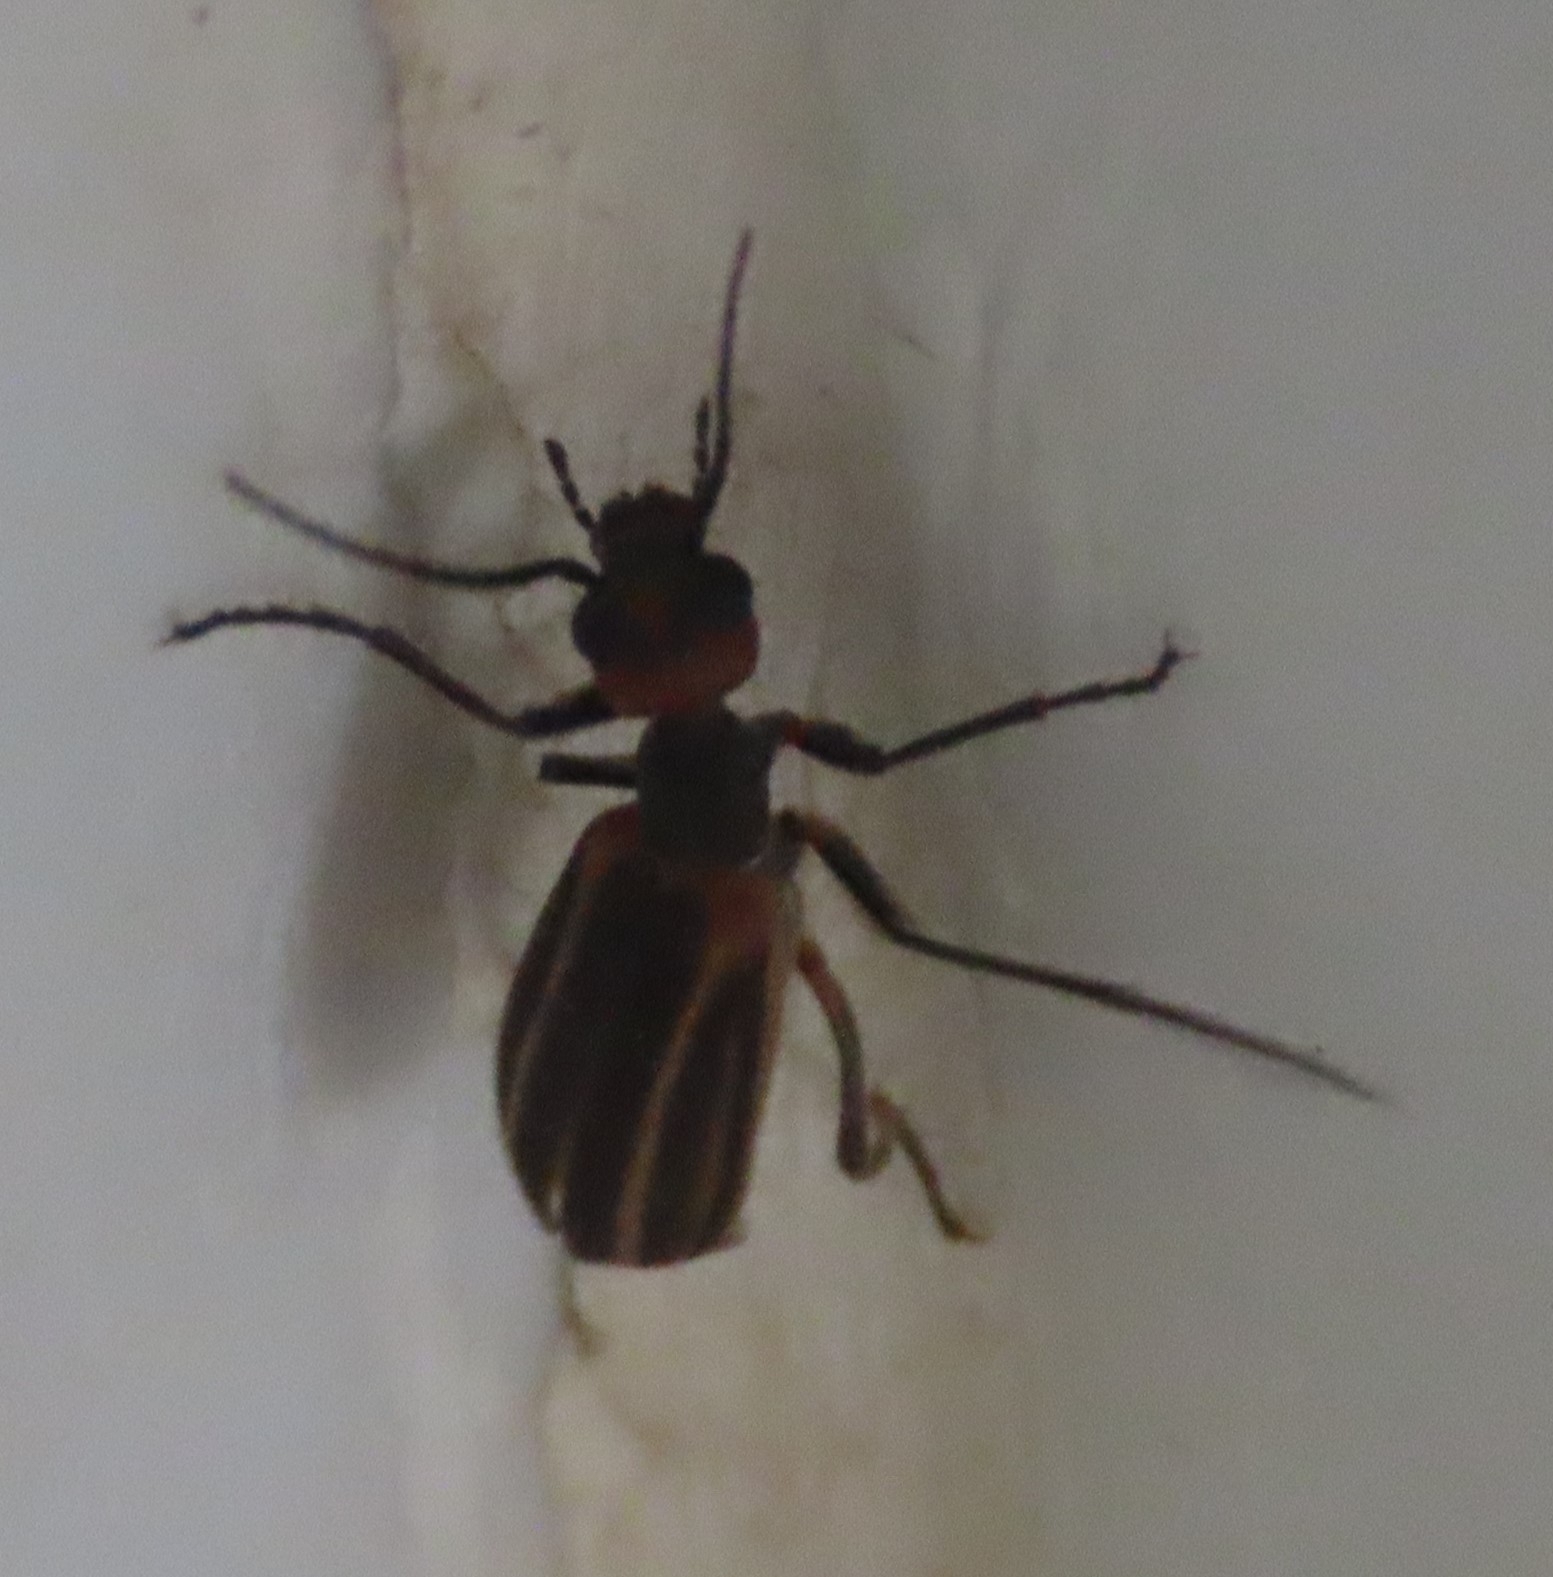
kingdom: Animalia
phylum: Arthropoda
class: Insecta
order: Coleoptera
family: Meloidae
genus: Epicauta
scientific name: Epicauta
